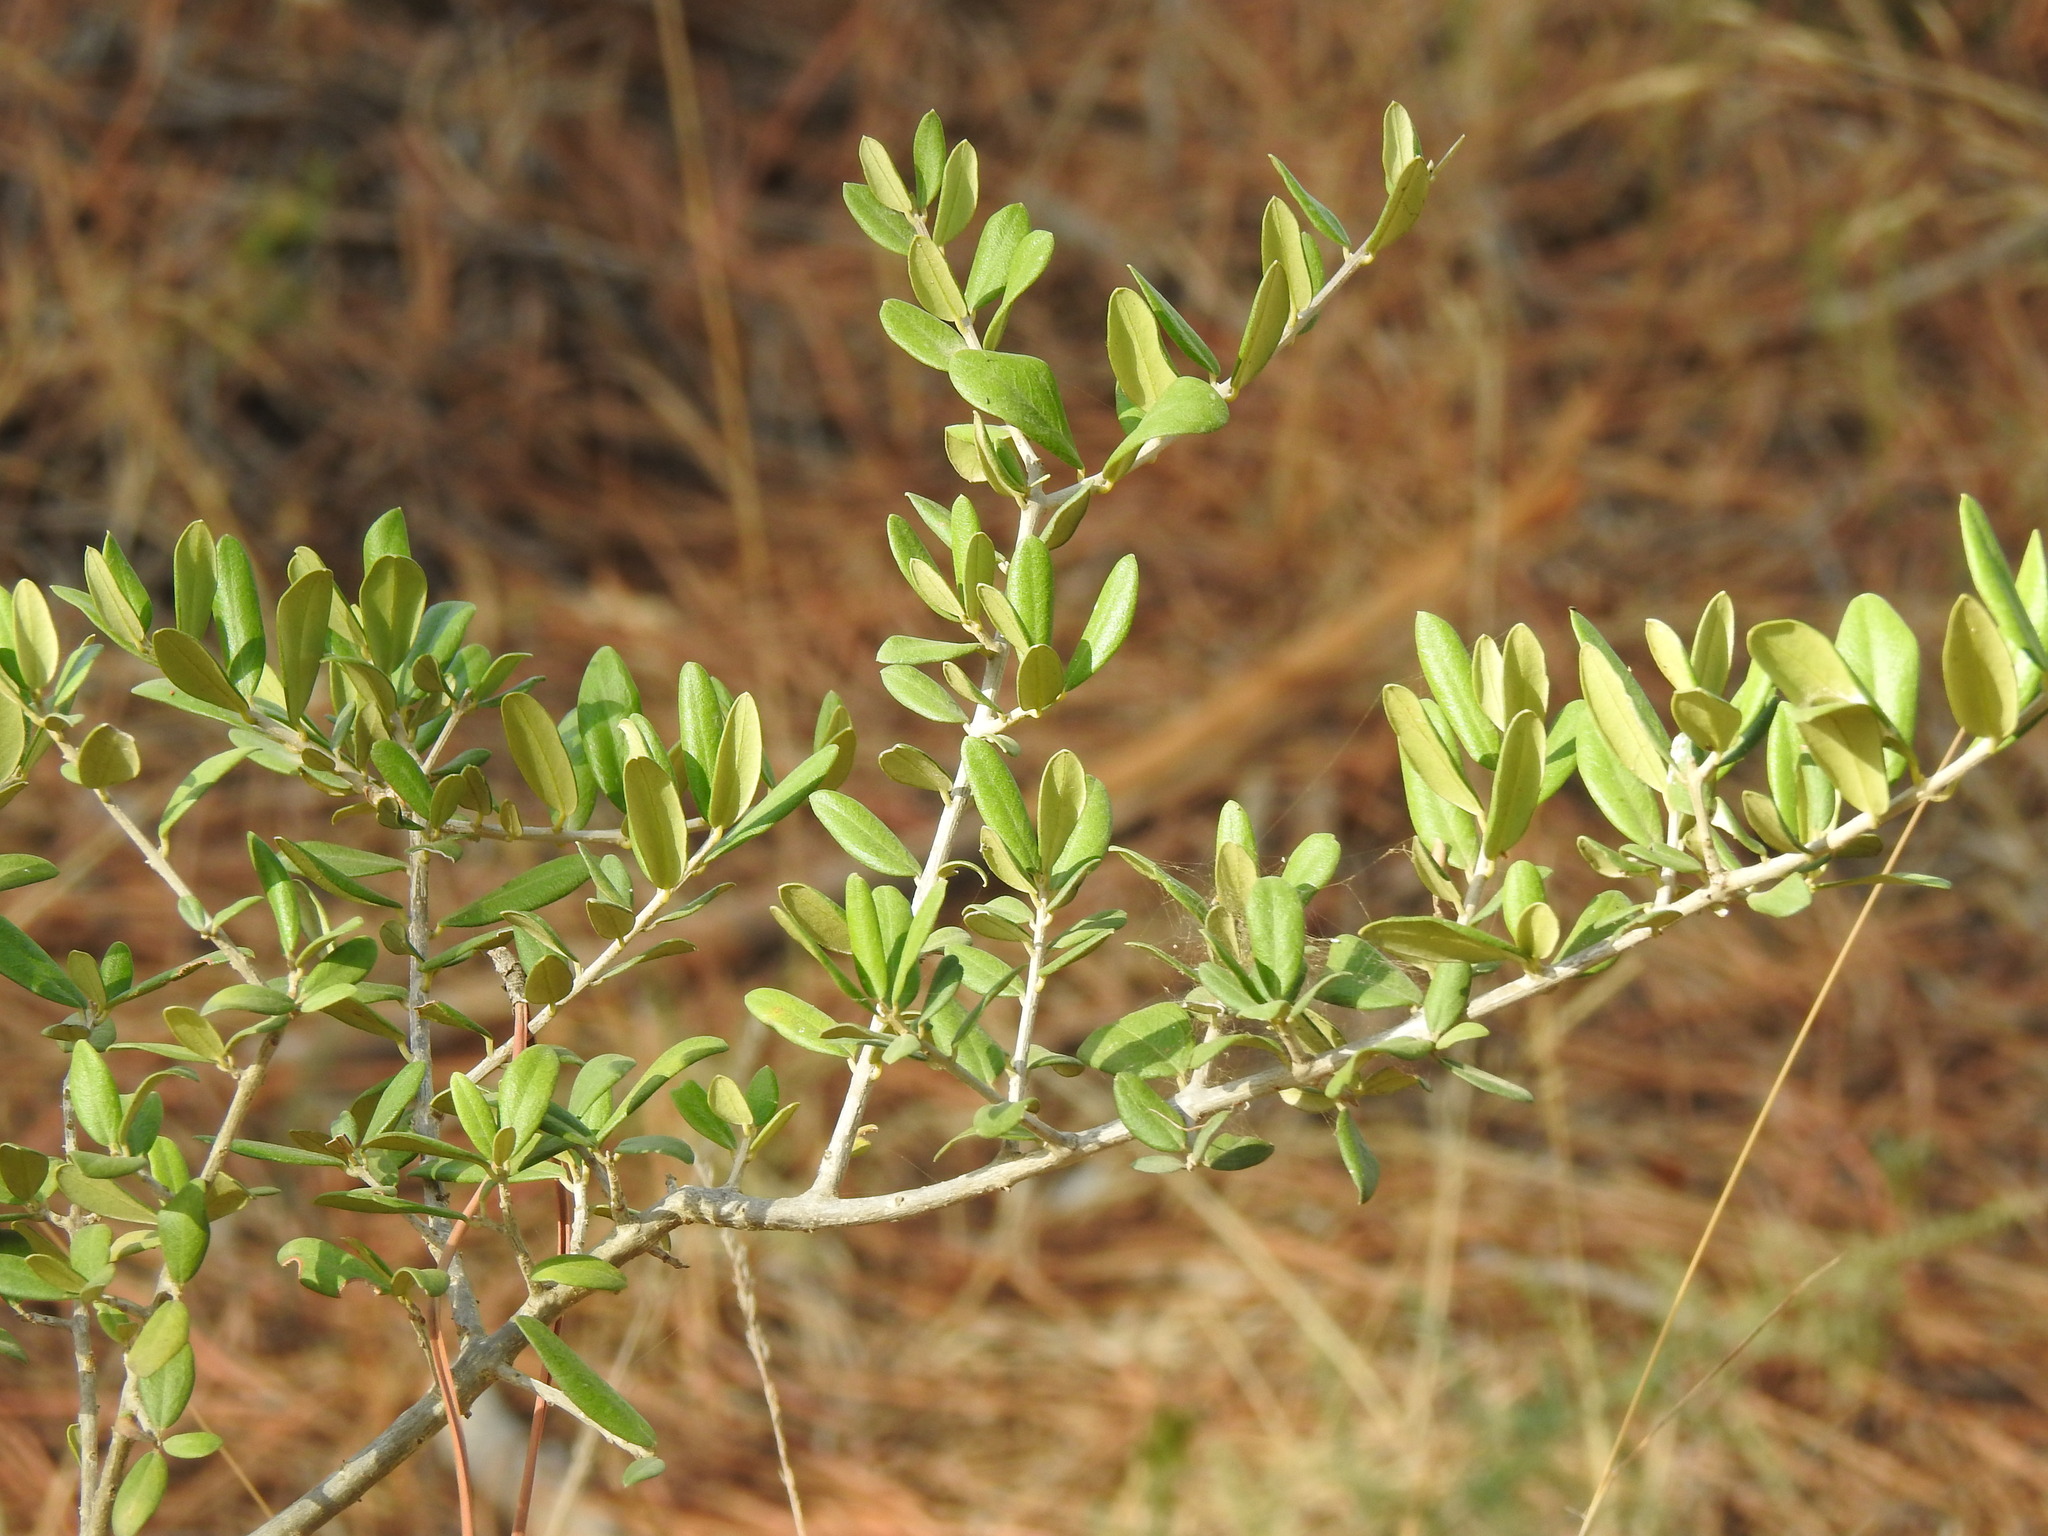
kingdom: Plantae
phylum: Tracheophyta
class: Magnoliopsida
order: Lamiales
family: Oleaceae
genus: Olea
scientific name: Olea europaea
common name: Olive
